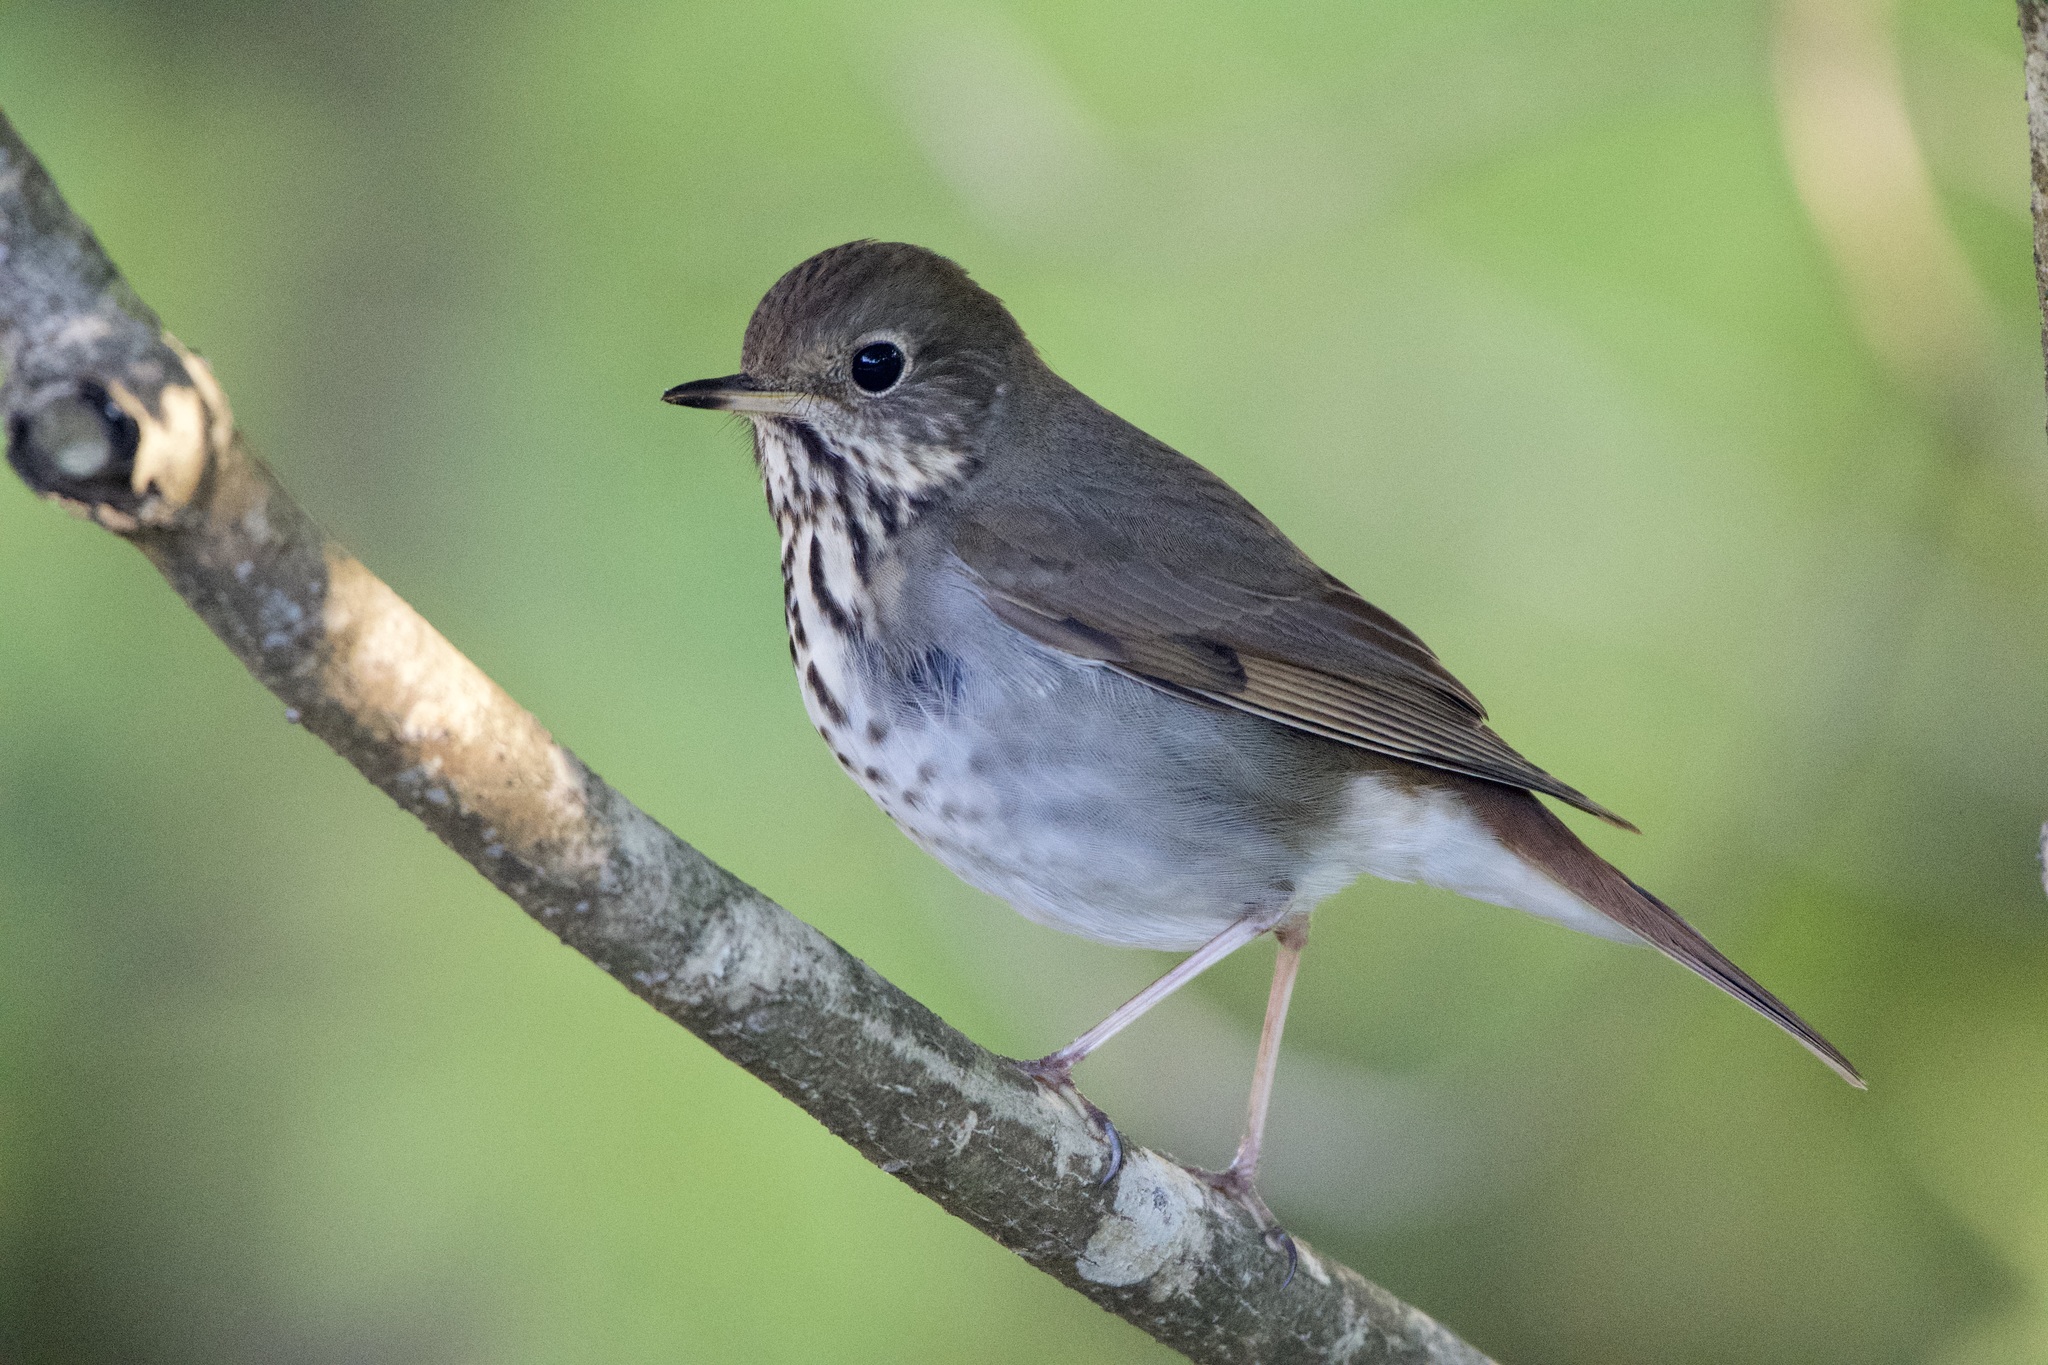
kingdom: Animalia
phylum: Chordata
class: Aves
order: Passeriformes
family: Turdidae
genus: Catharus
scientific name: Catharus guttatus
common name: Hermit thrush
